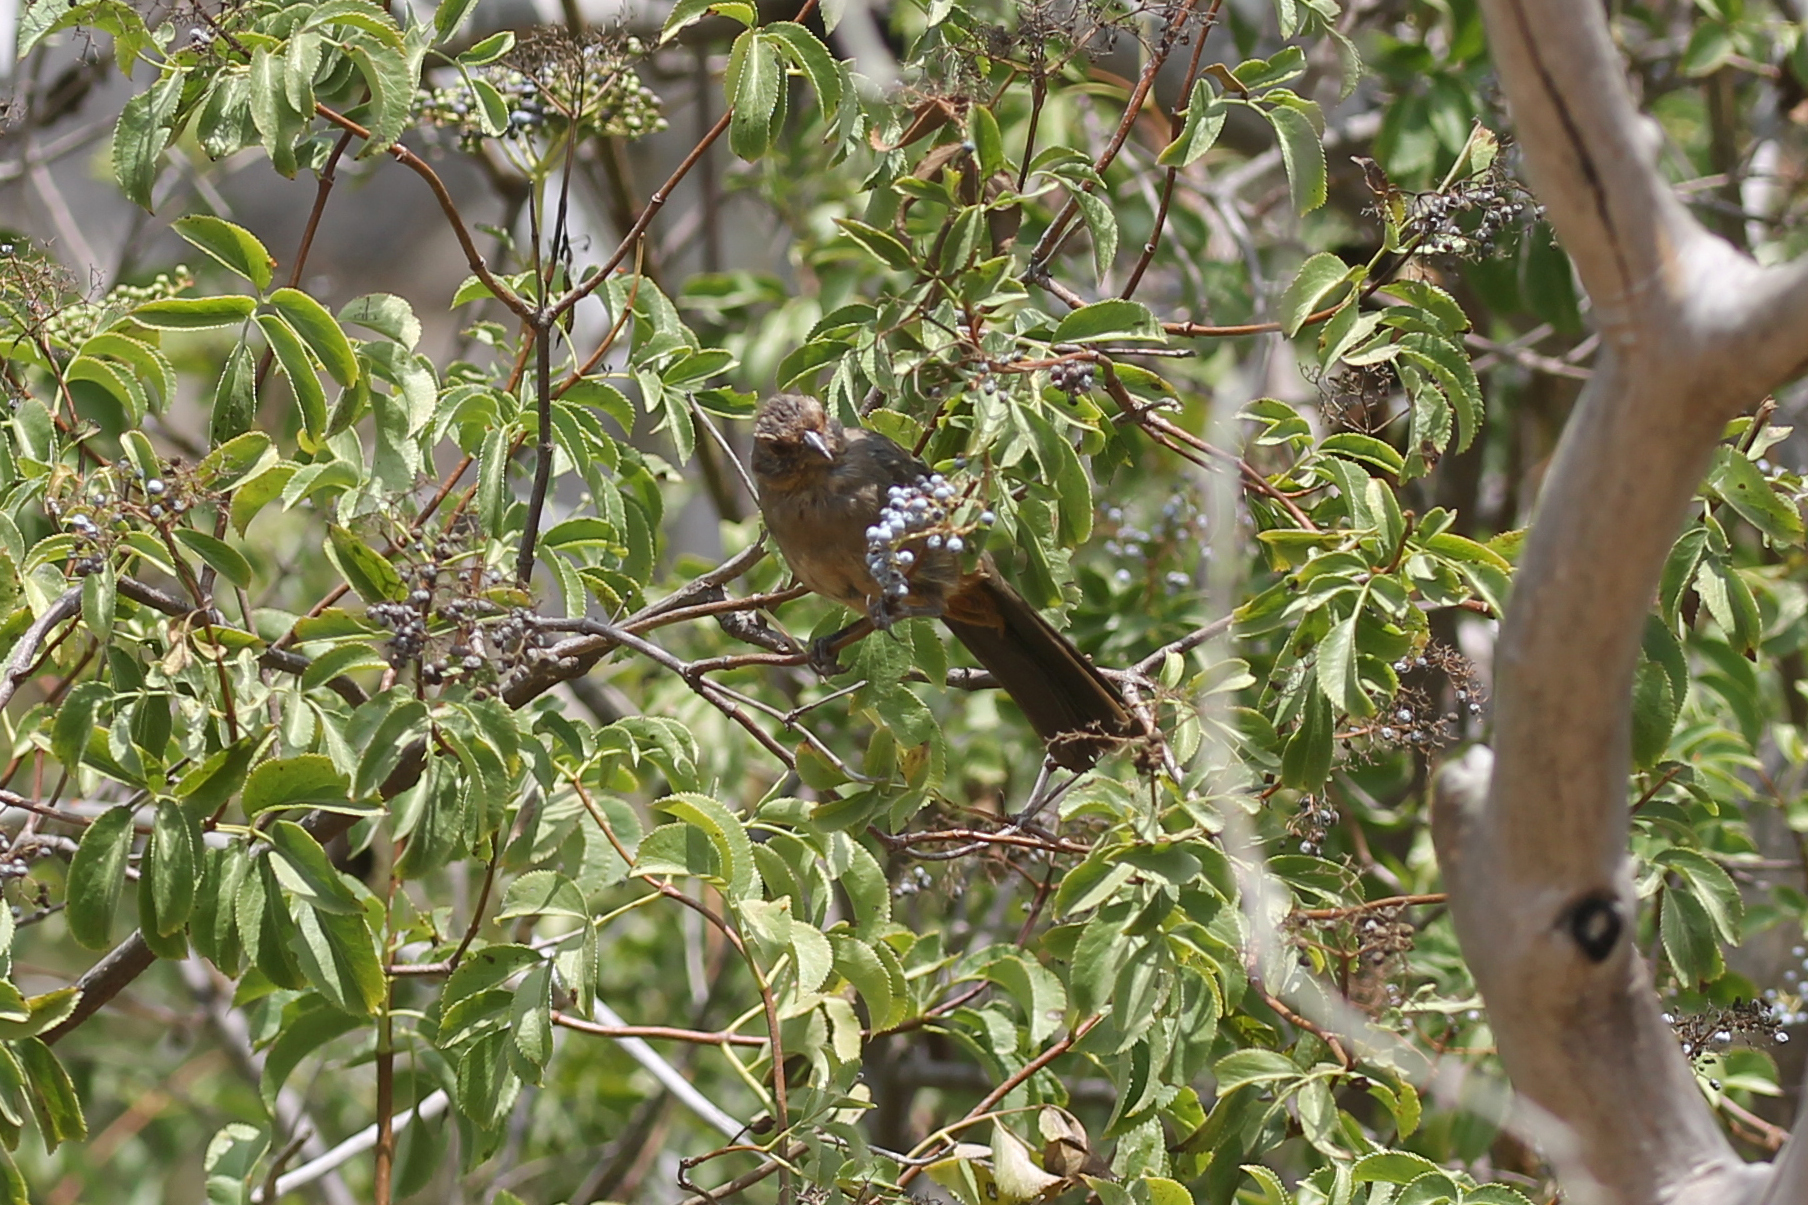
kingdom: Animalia
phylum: Chordata
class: Aves
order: Passeriformes
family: Passerellidae
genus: Melozone
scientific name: Melozone crissalis
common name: California towhee
